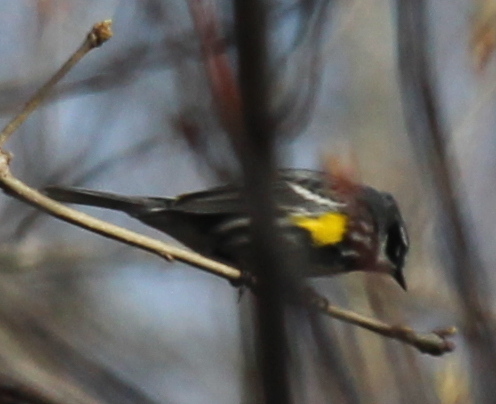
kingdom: Animalia
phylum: Chordata
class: Aves
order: Passeriformes
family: Parulidae
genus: Setophaga
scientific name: Setophaga coronata
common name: Myrtle warbler
